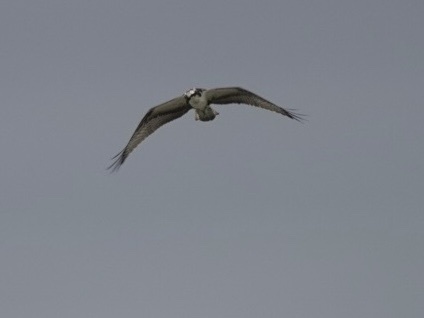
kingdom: Animalia
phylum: Chordata
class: Aves
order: Accipitriformes
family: Pandionidae
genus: Pandion
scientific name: Pandion haliaetus
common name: Osprey
